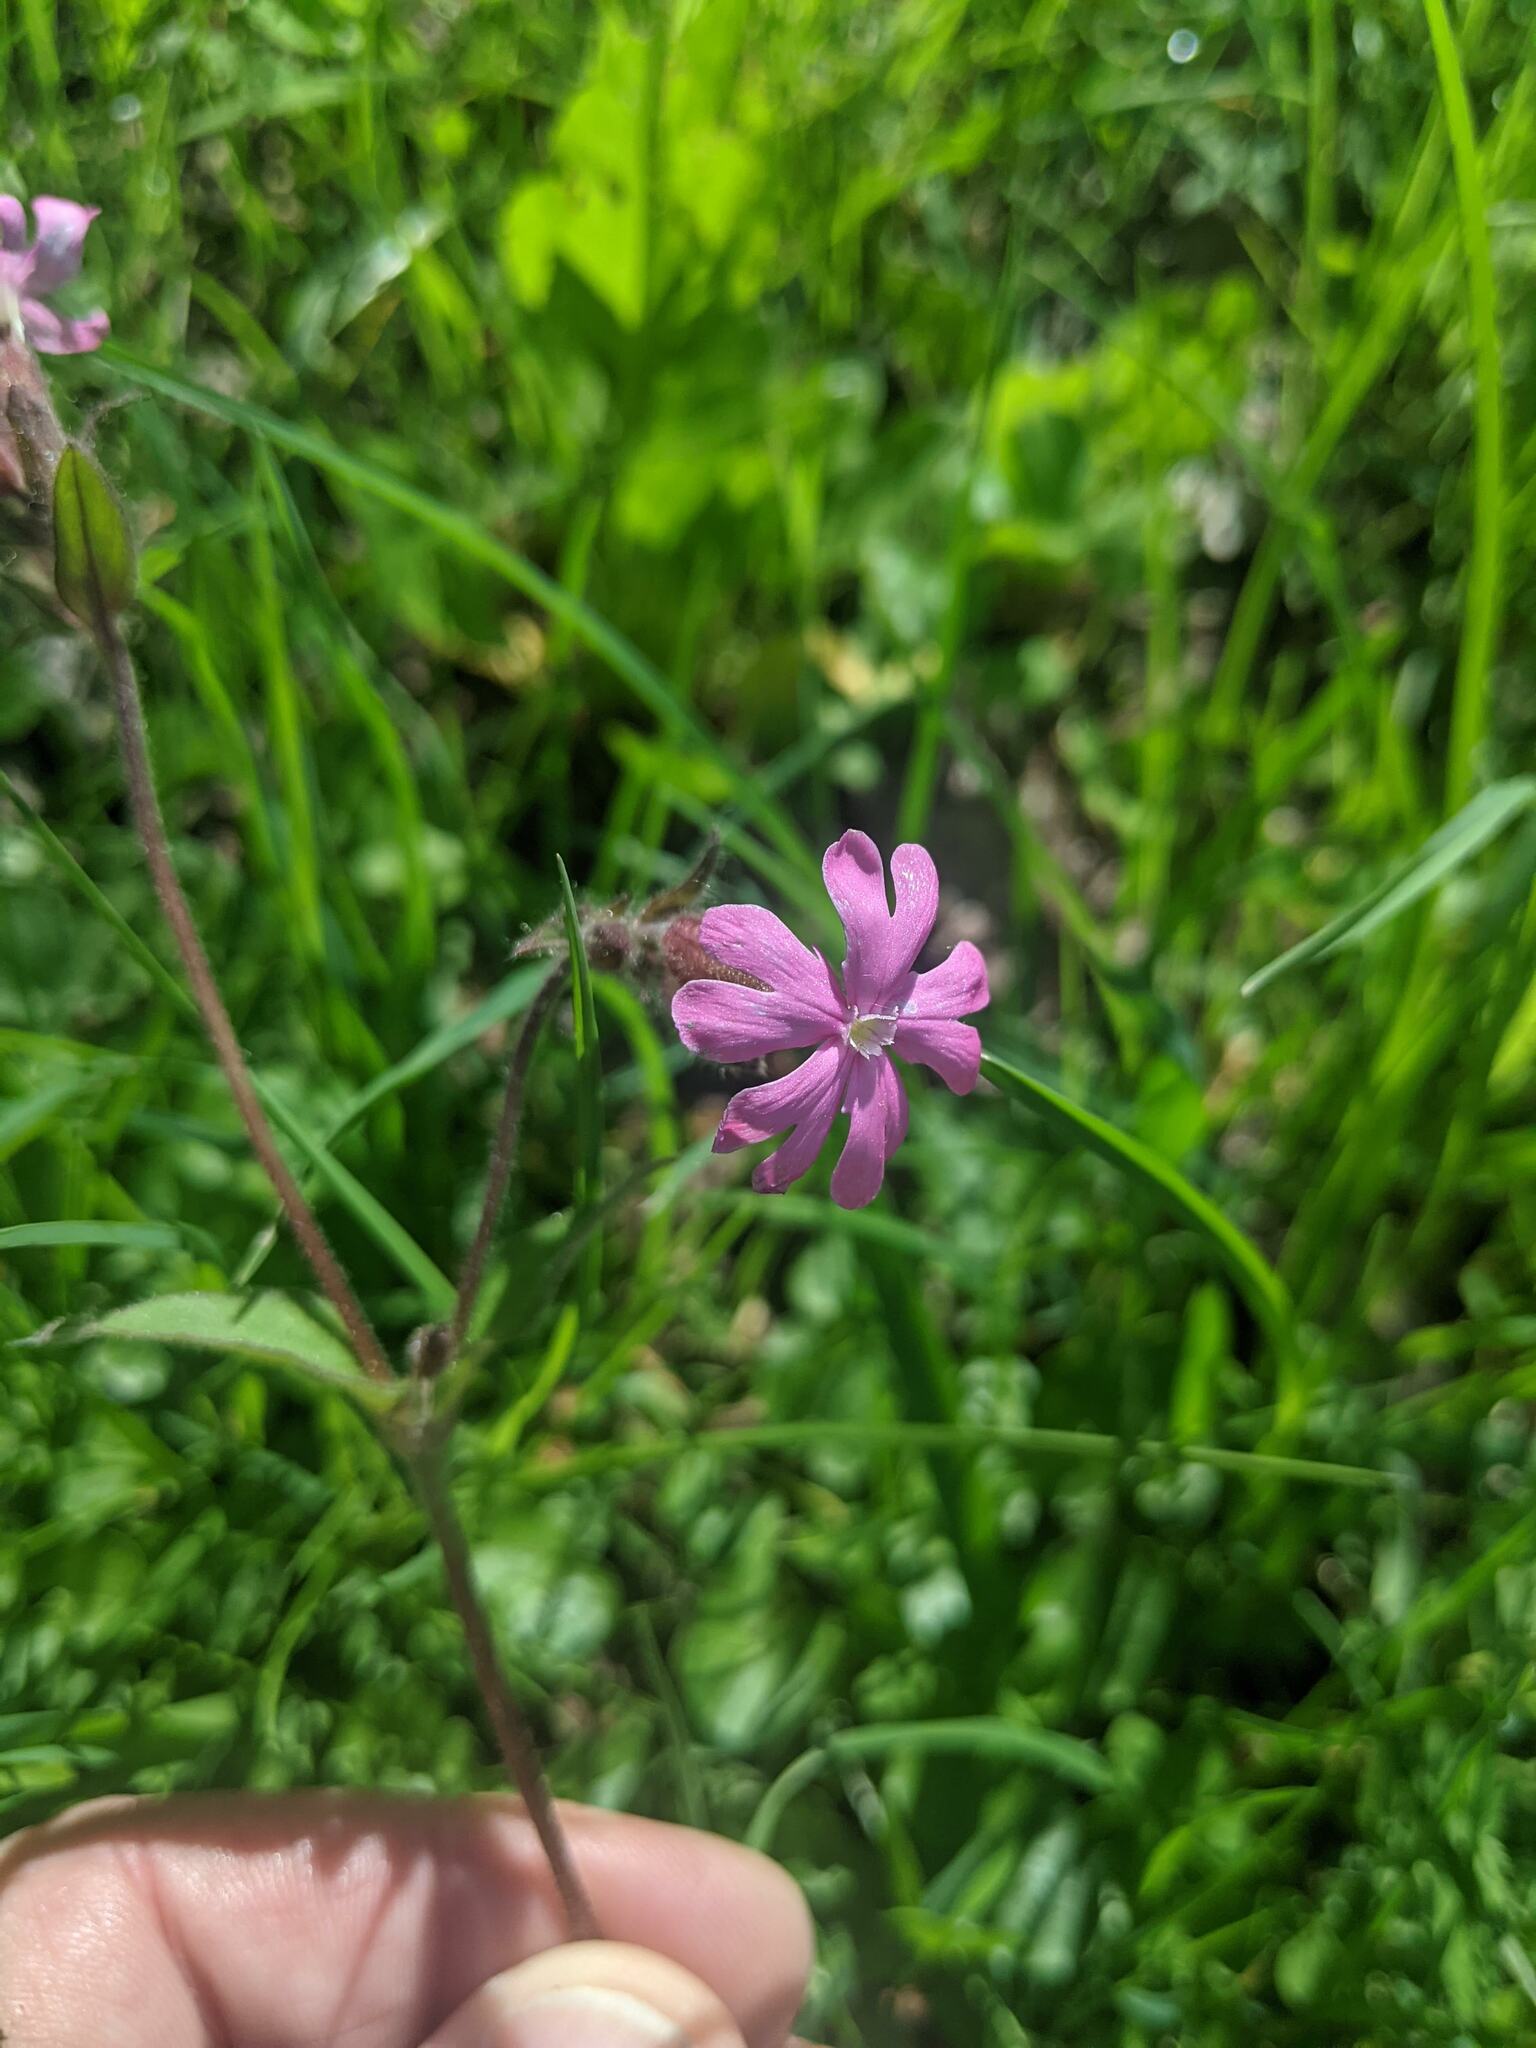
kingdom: Plantae
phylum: Tracheophyta
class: Magnoliopsida
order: Caryophyllales
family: Caryophyllaceae
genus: Silene
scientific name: Silene dioica
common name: Red campion
